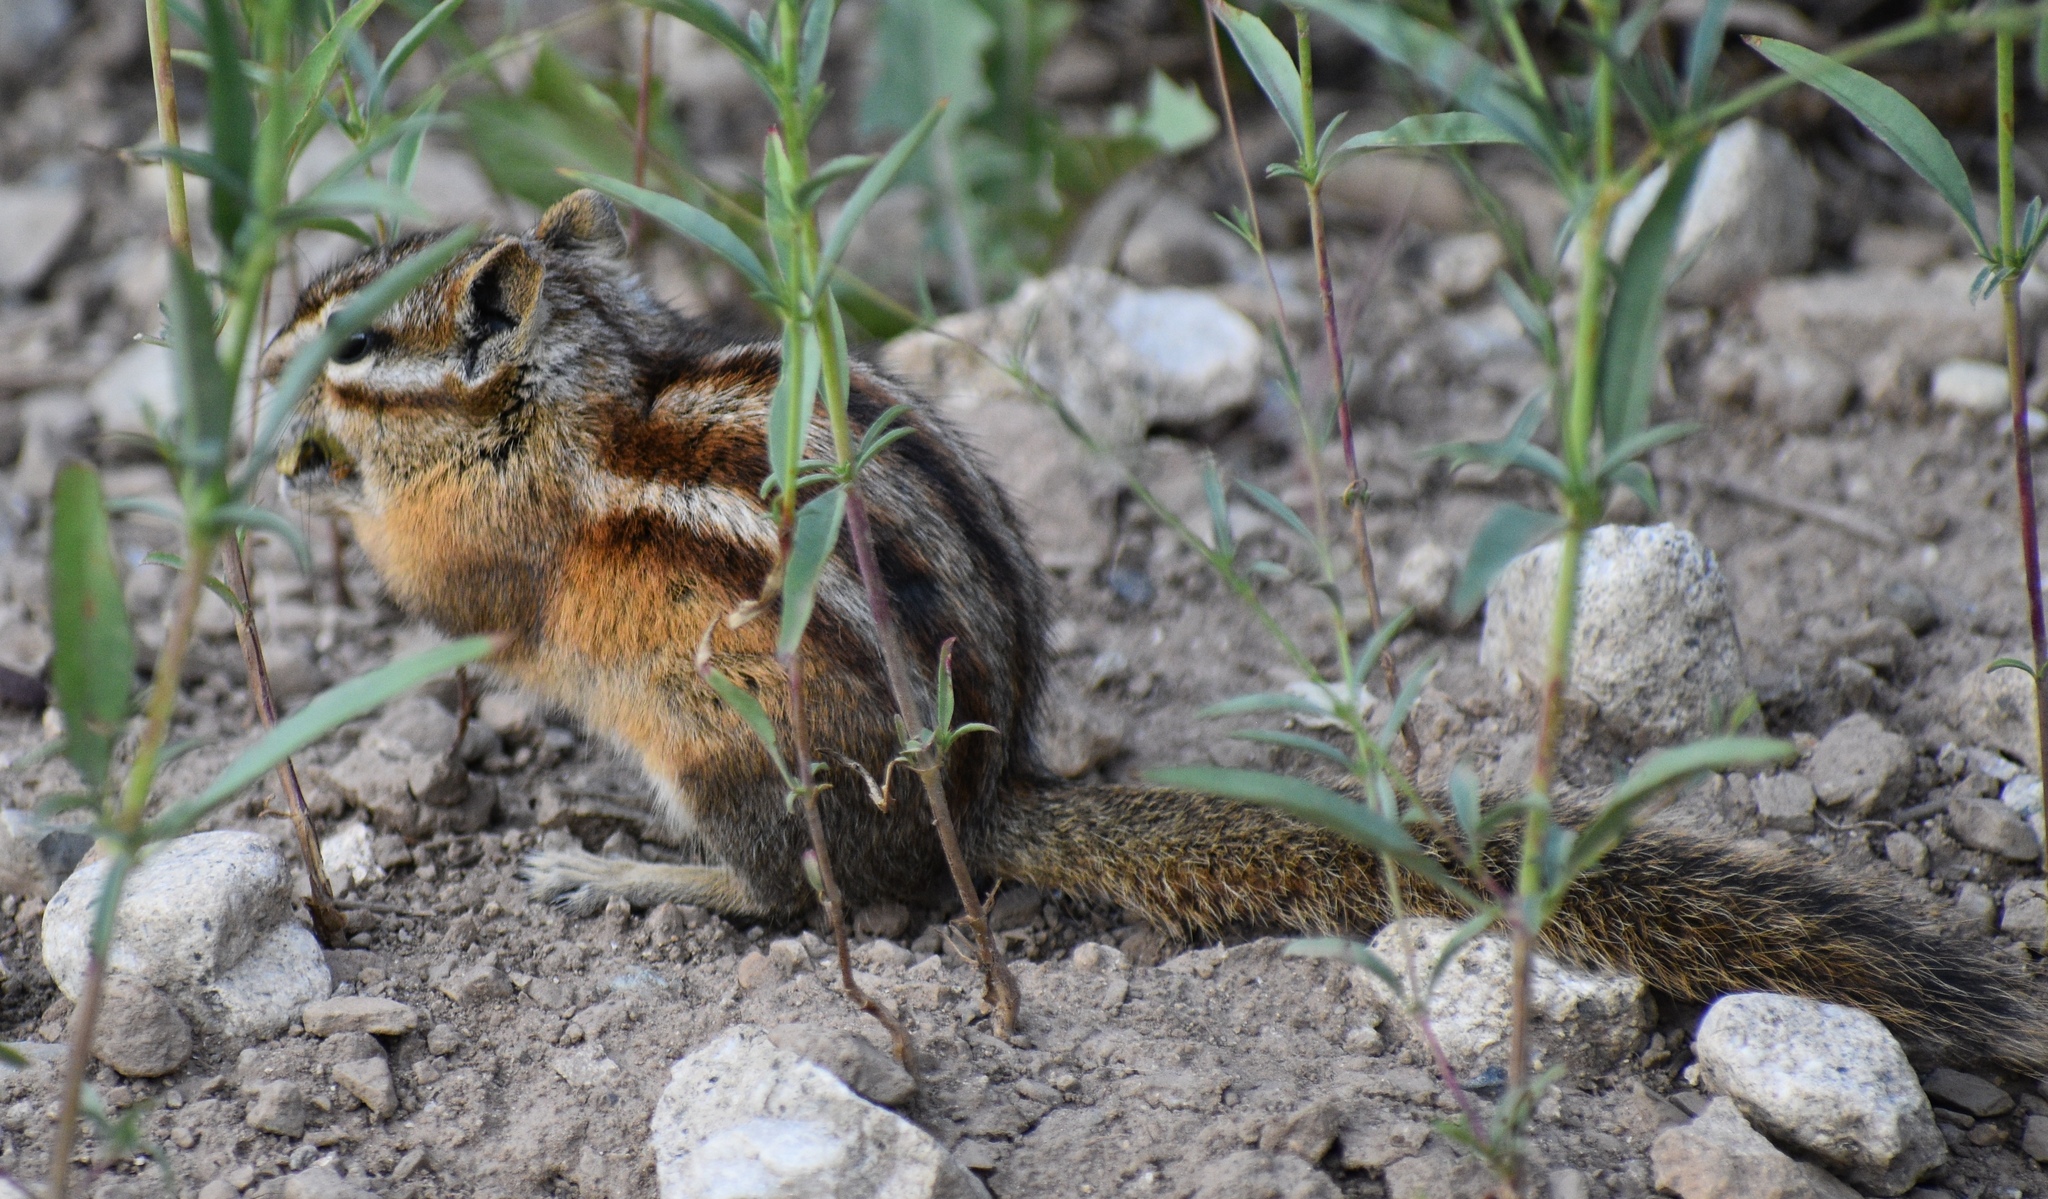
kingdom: Animalia
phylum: Chordata
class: Mammalia
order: Rodentia
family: Sciuridae
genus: Tamias
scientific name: Tamias minimus
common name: Least chipmunk
